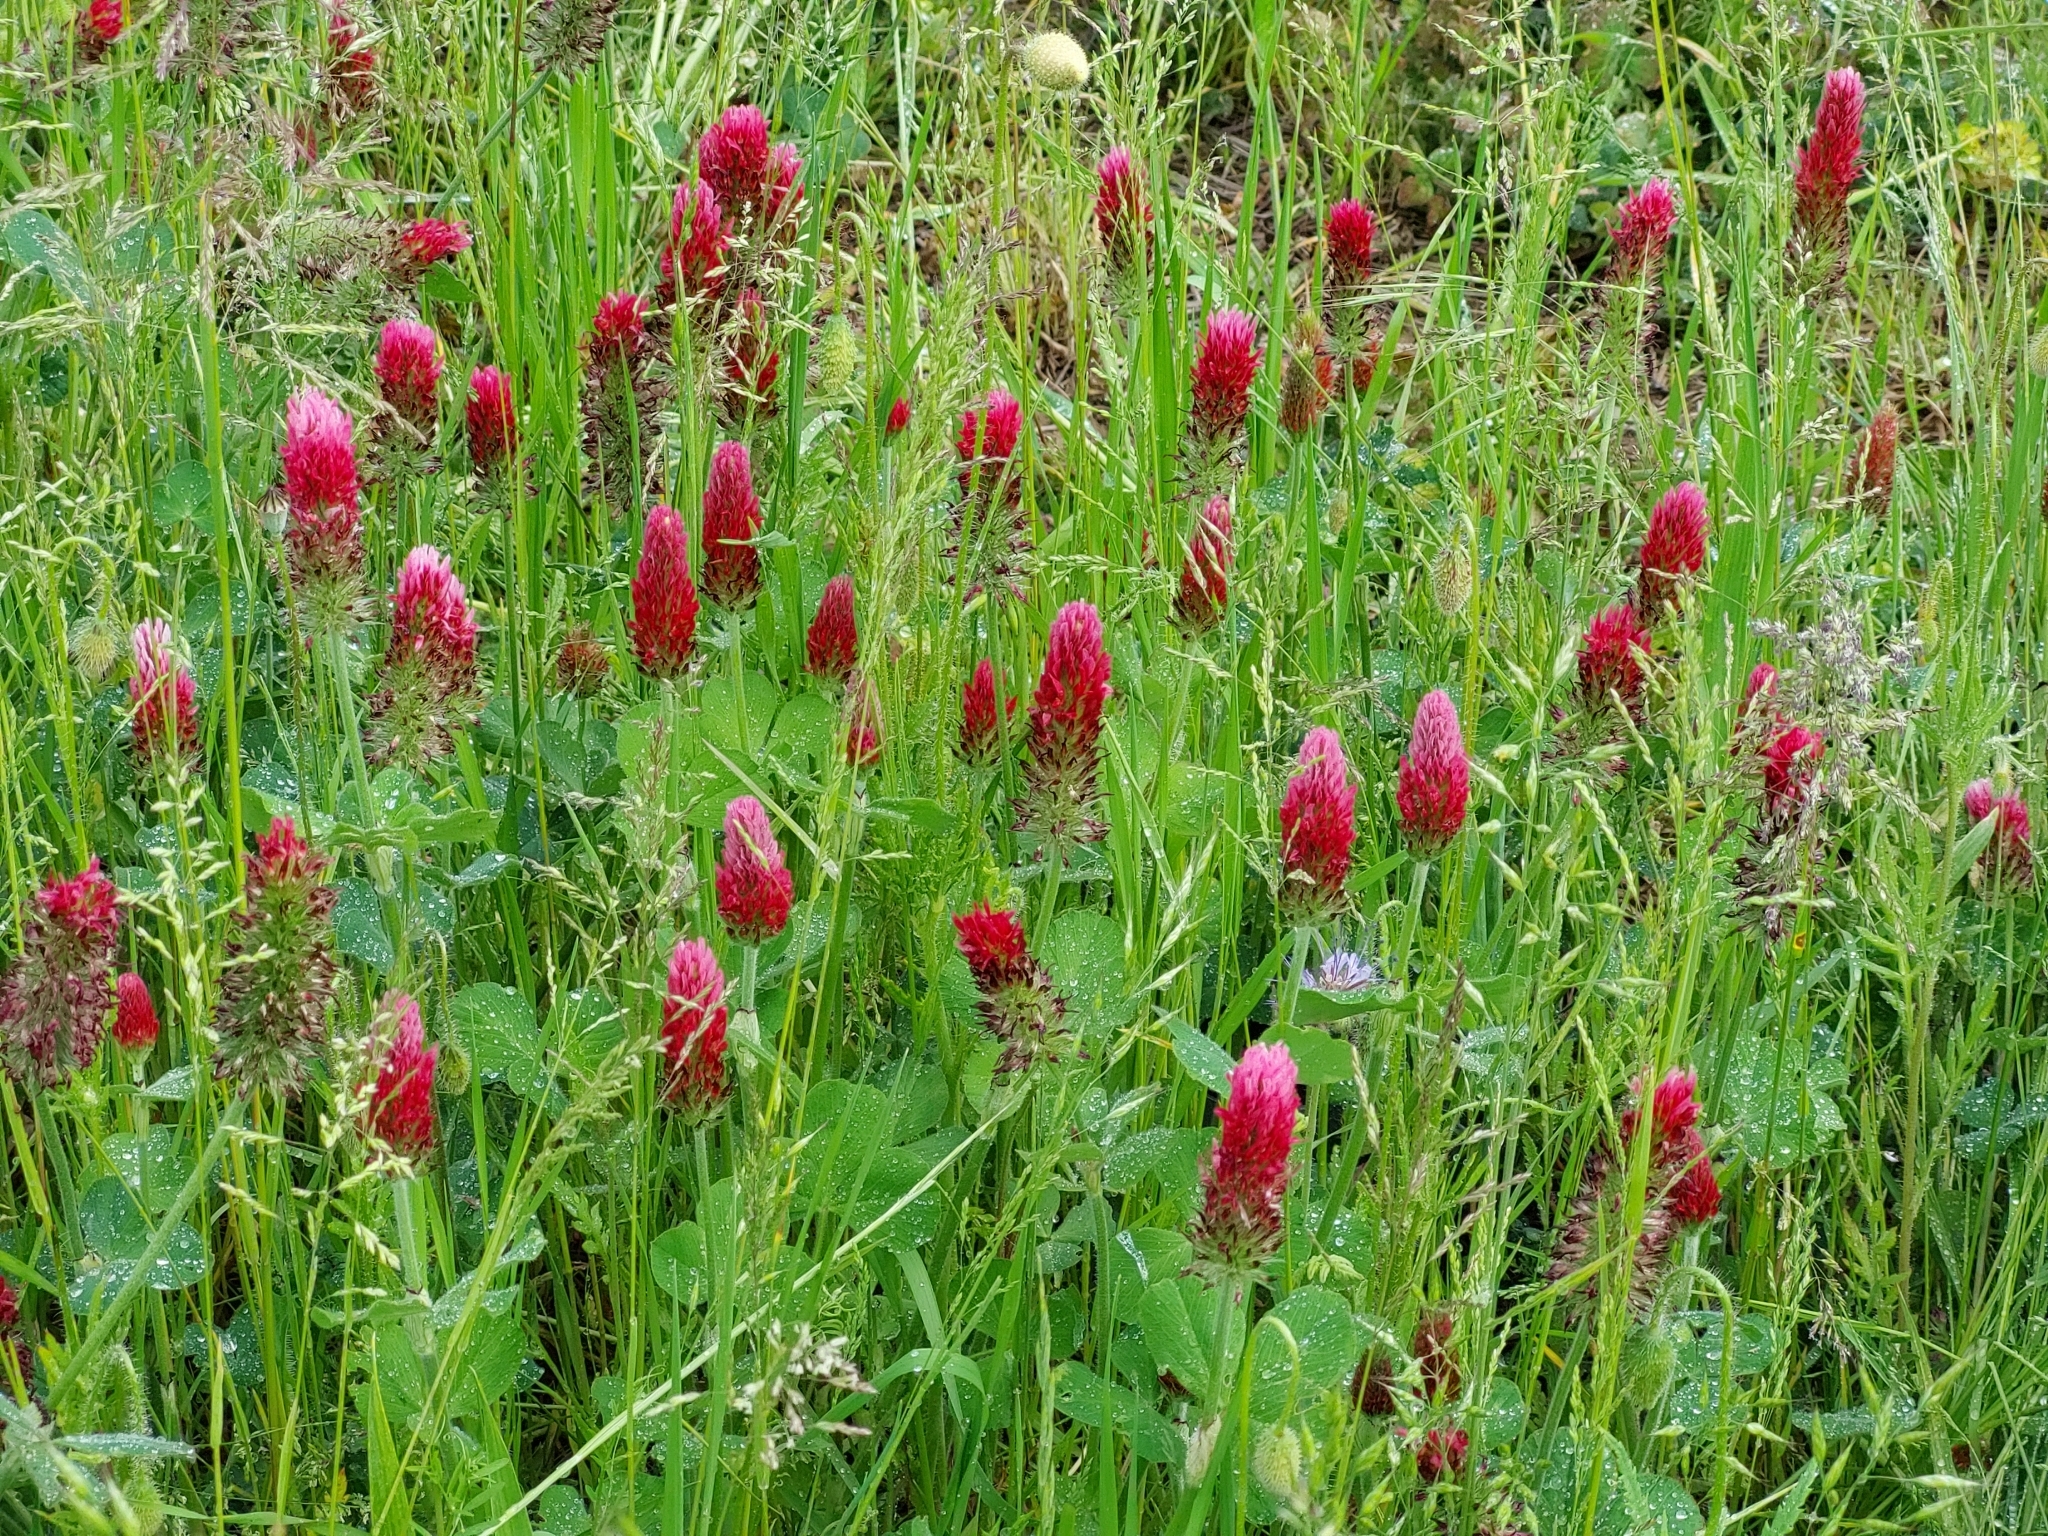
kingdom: Plantae
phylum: Tracheophyta
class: Magnoliopsida
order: Fabales
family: Fabaceae
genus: Trifolium
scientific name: Trifolium incarnatum
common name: Crimson clover
